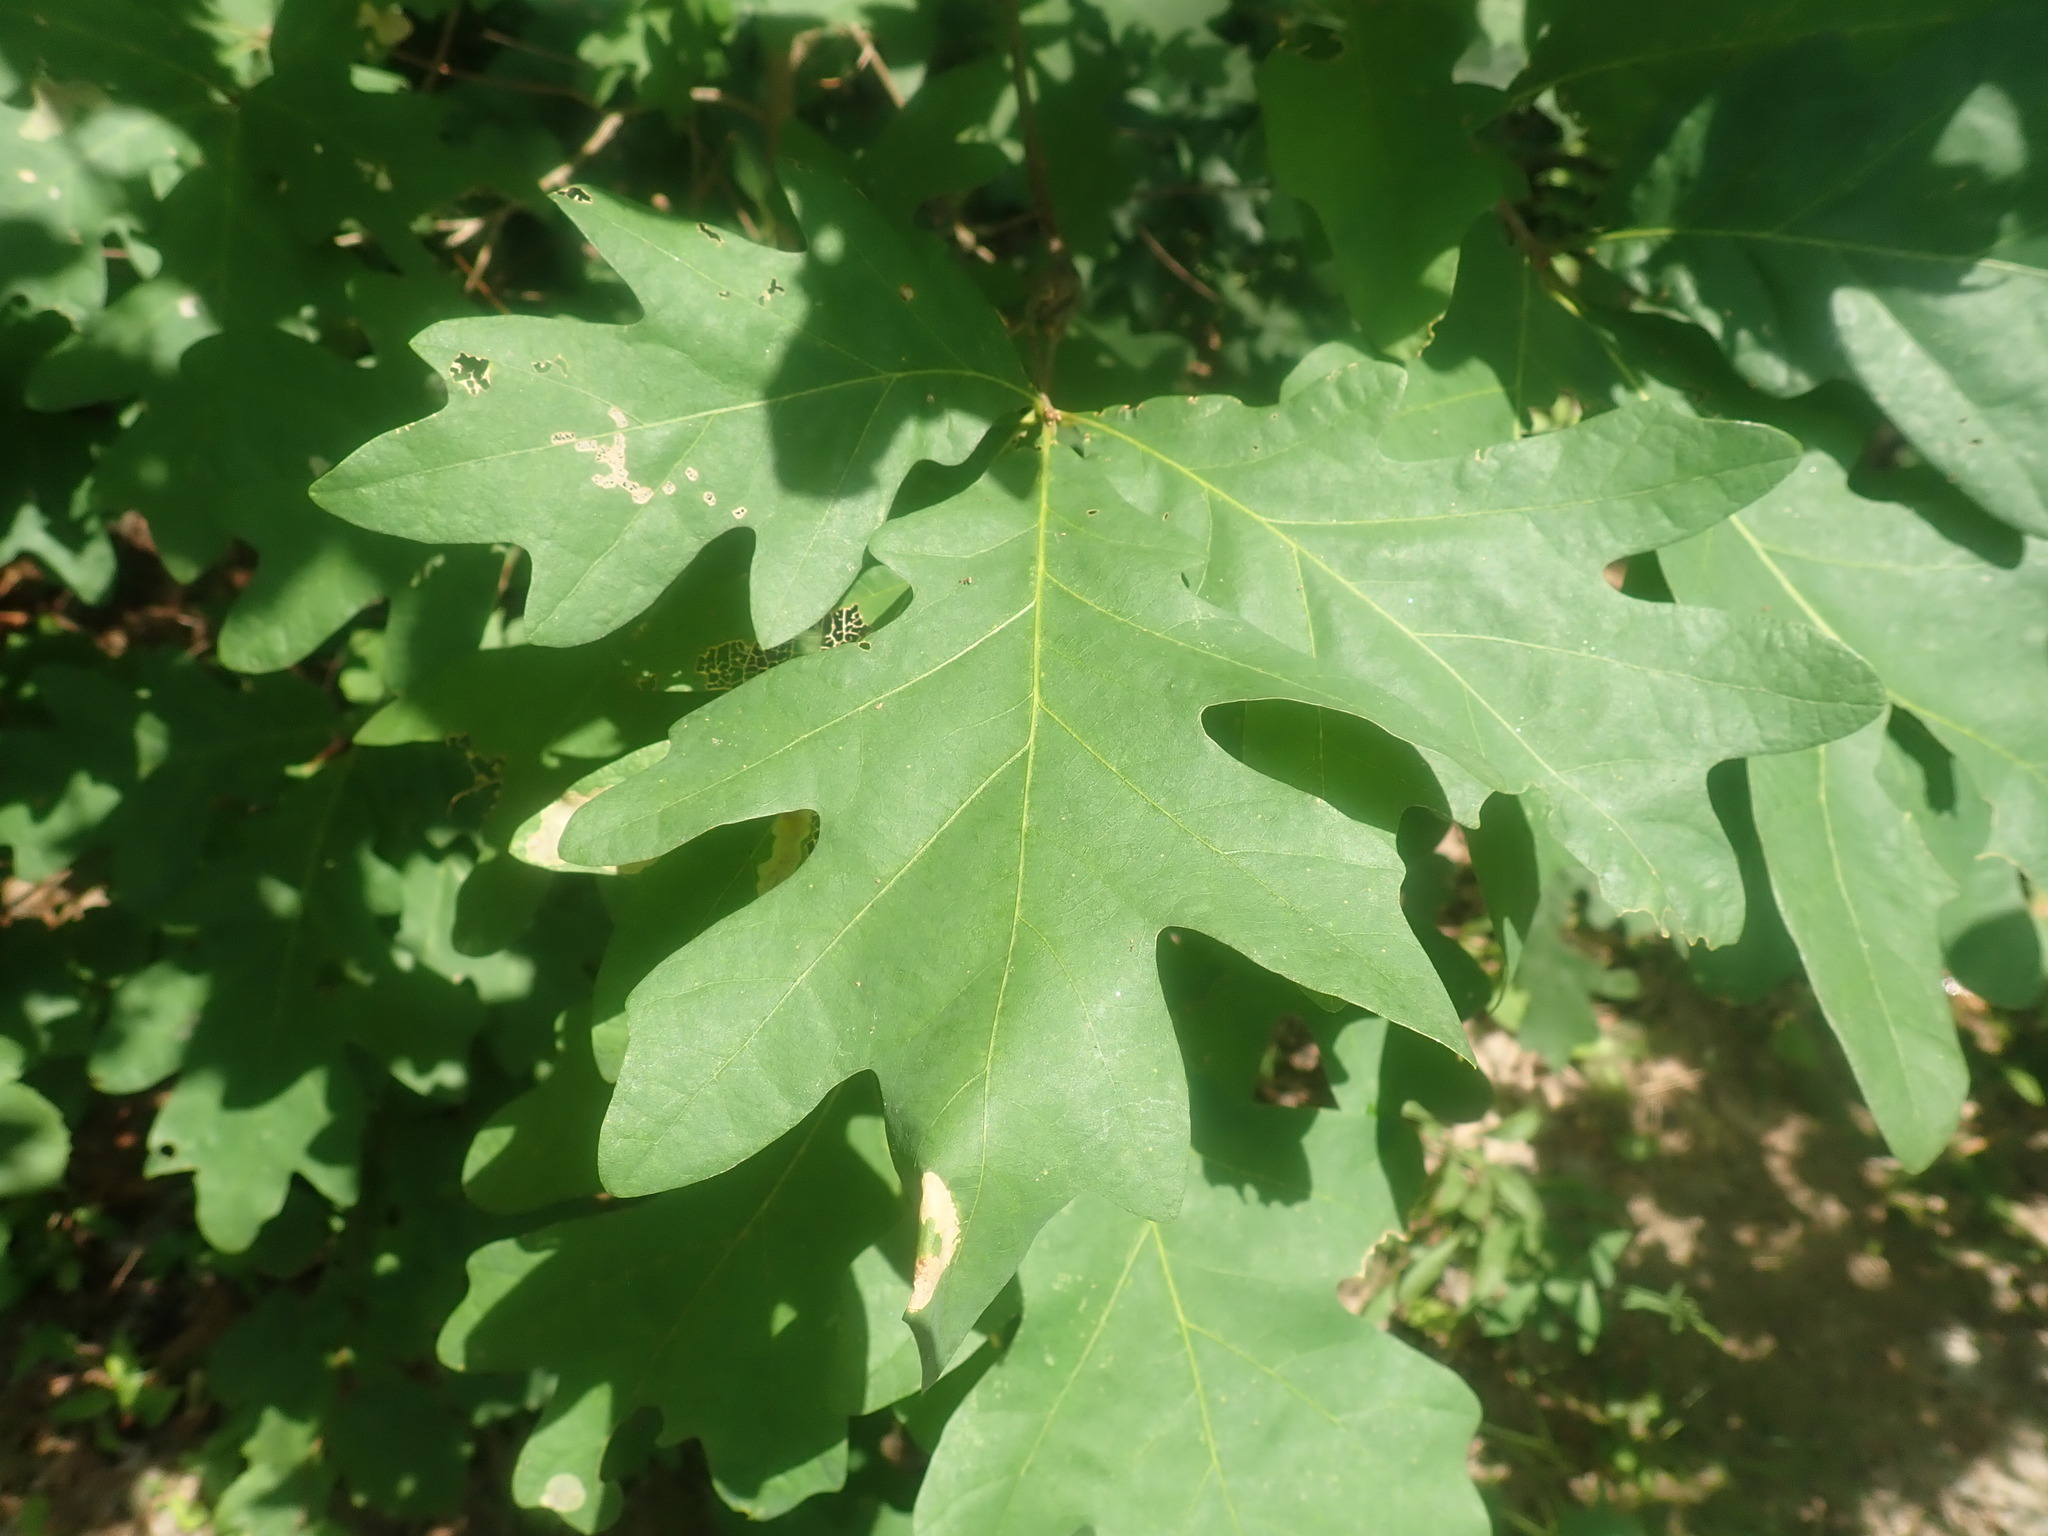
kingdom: Plantae
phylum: Tracheophyta
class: Magnoliopsida
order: Fagales
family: Fagaceae
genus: Quercus
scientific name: Quercus alba
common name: White oak
